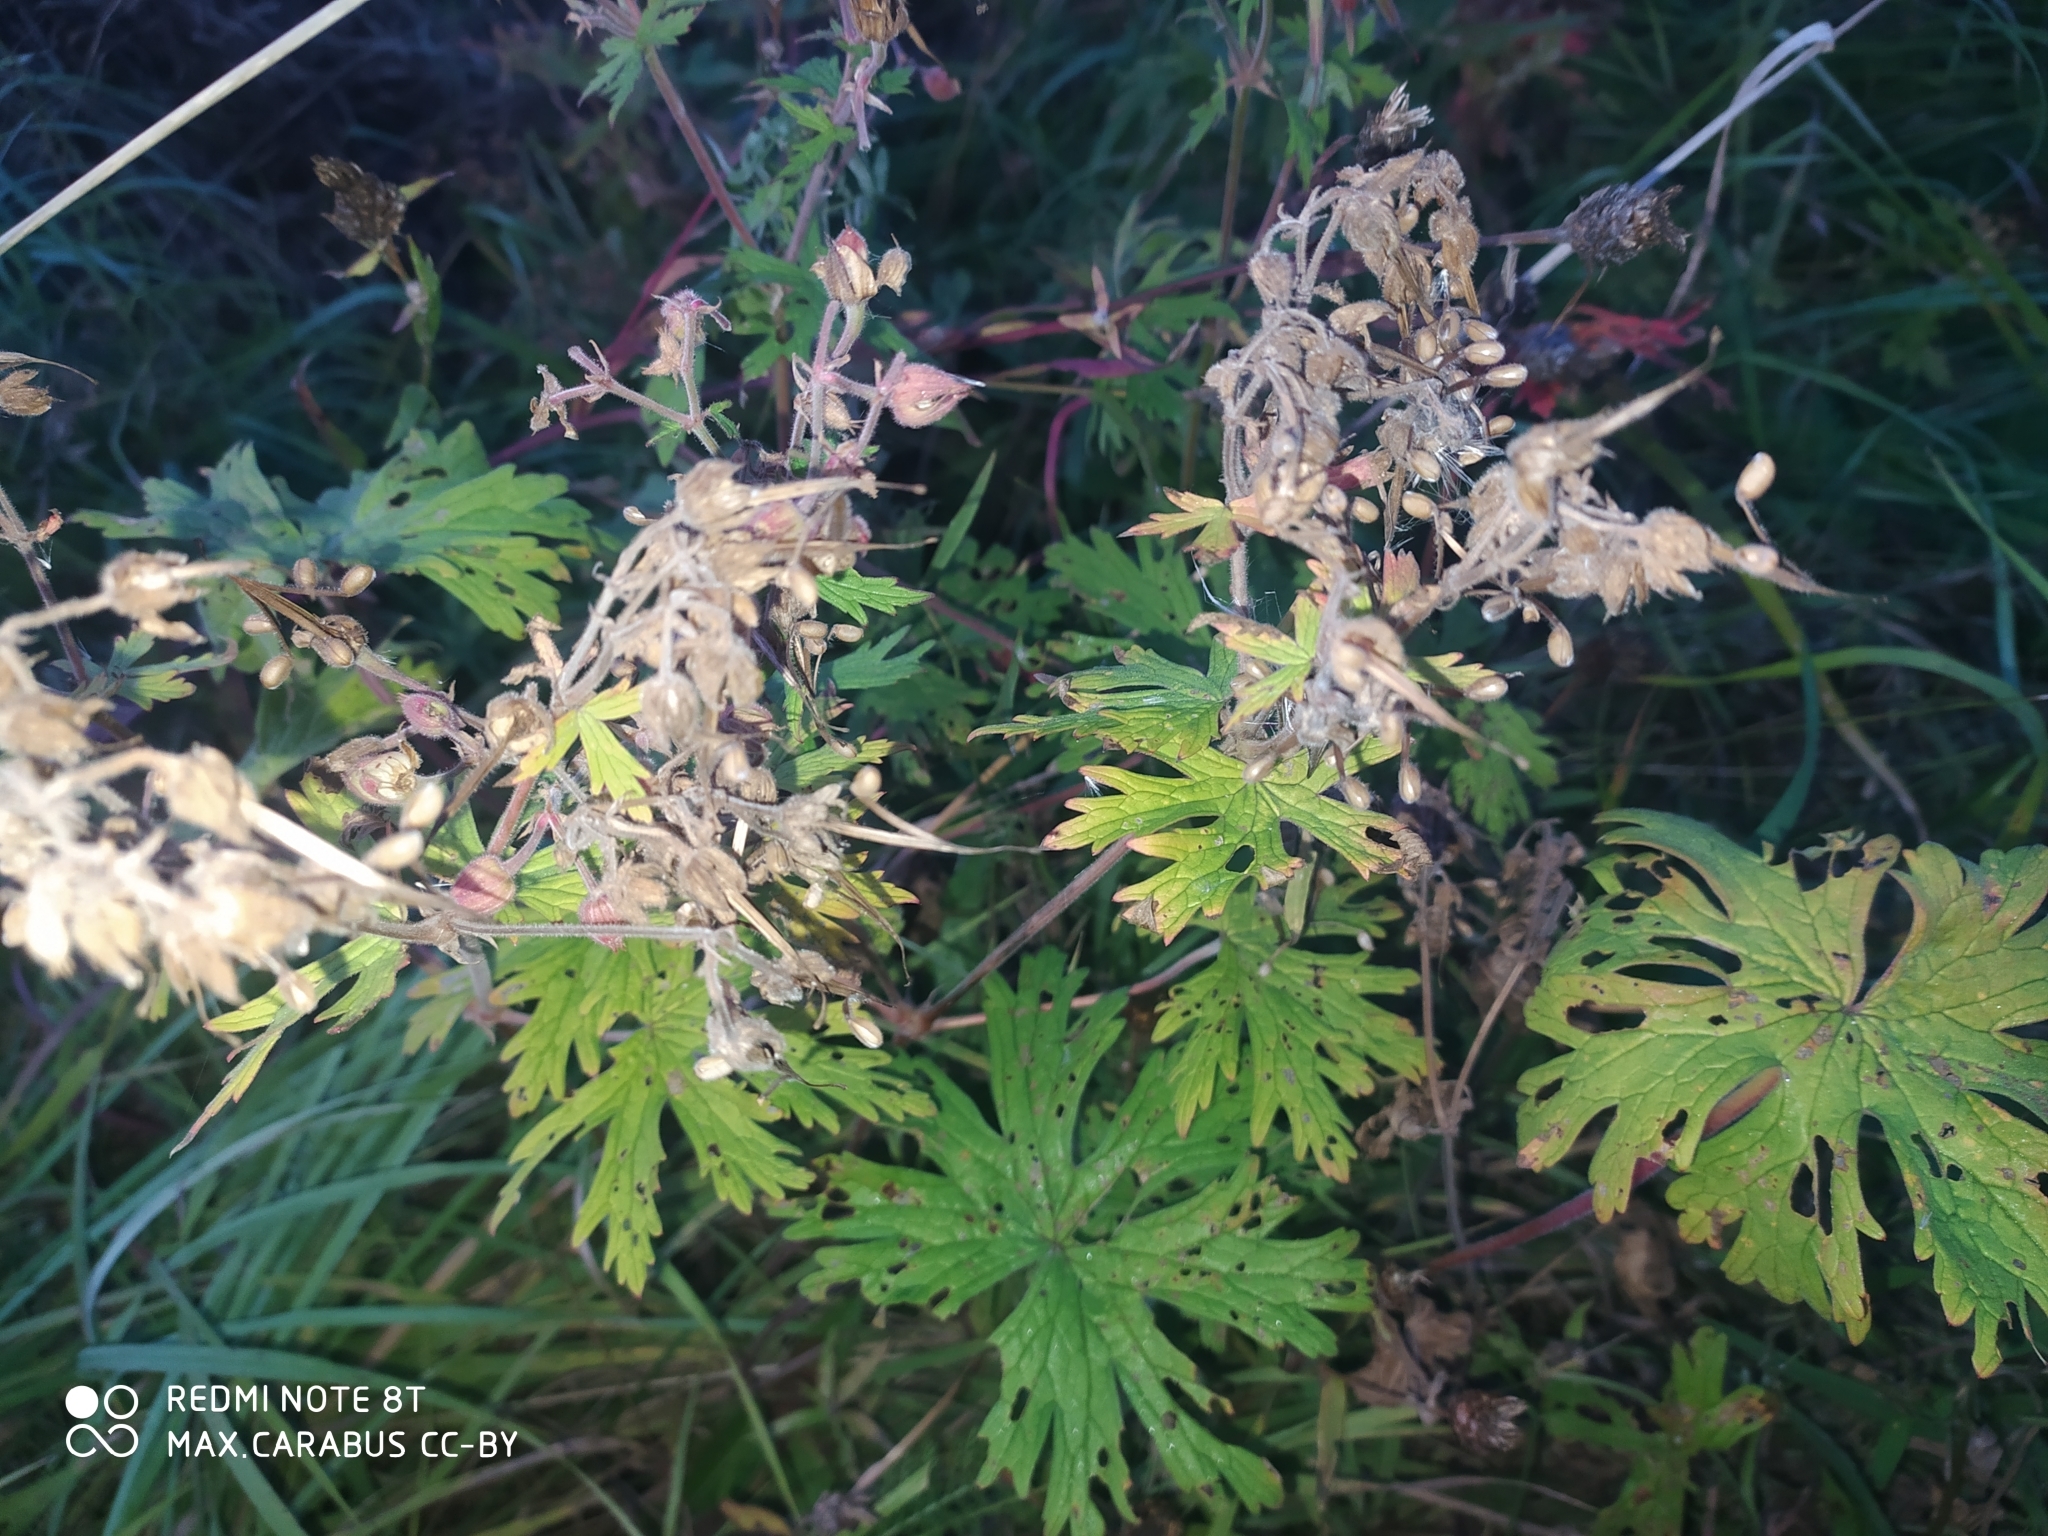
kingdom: Plantae
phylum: Tracheophyta
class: Magnoliopsida
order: Geraniales
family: Geraniaceae
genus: Geranium
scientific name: Geranium pratense
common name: Meadow crane's-bill
